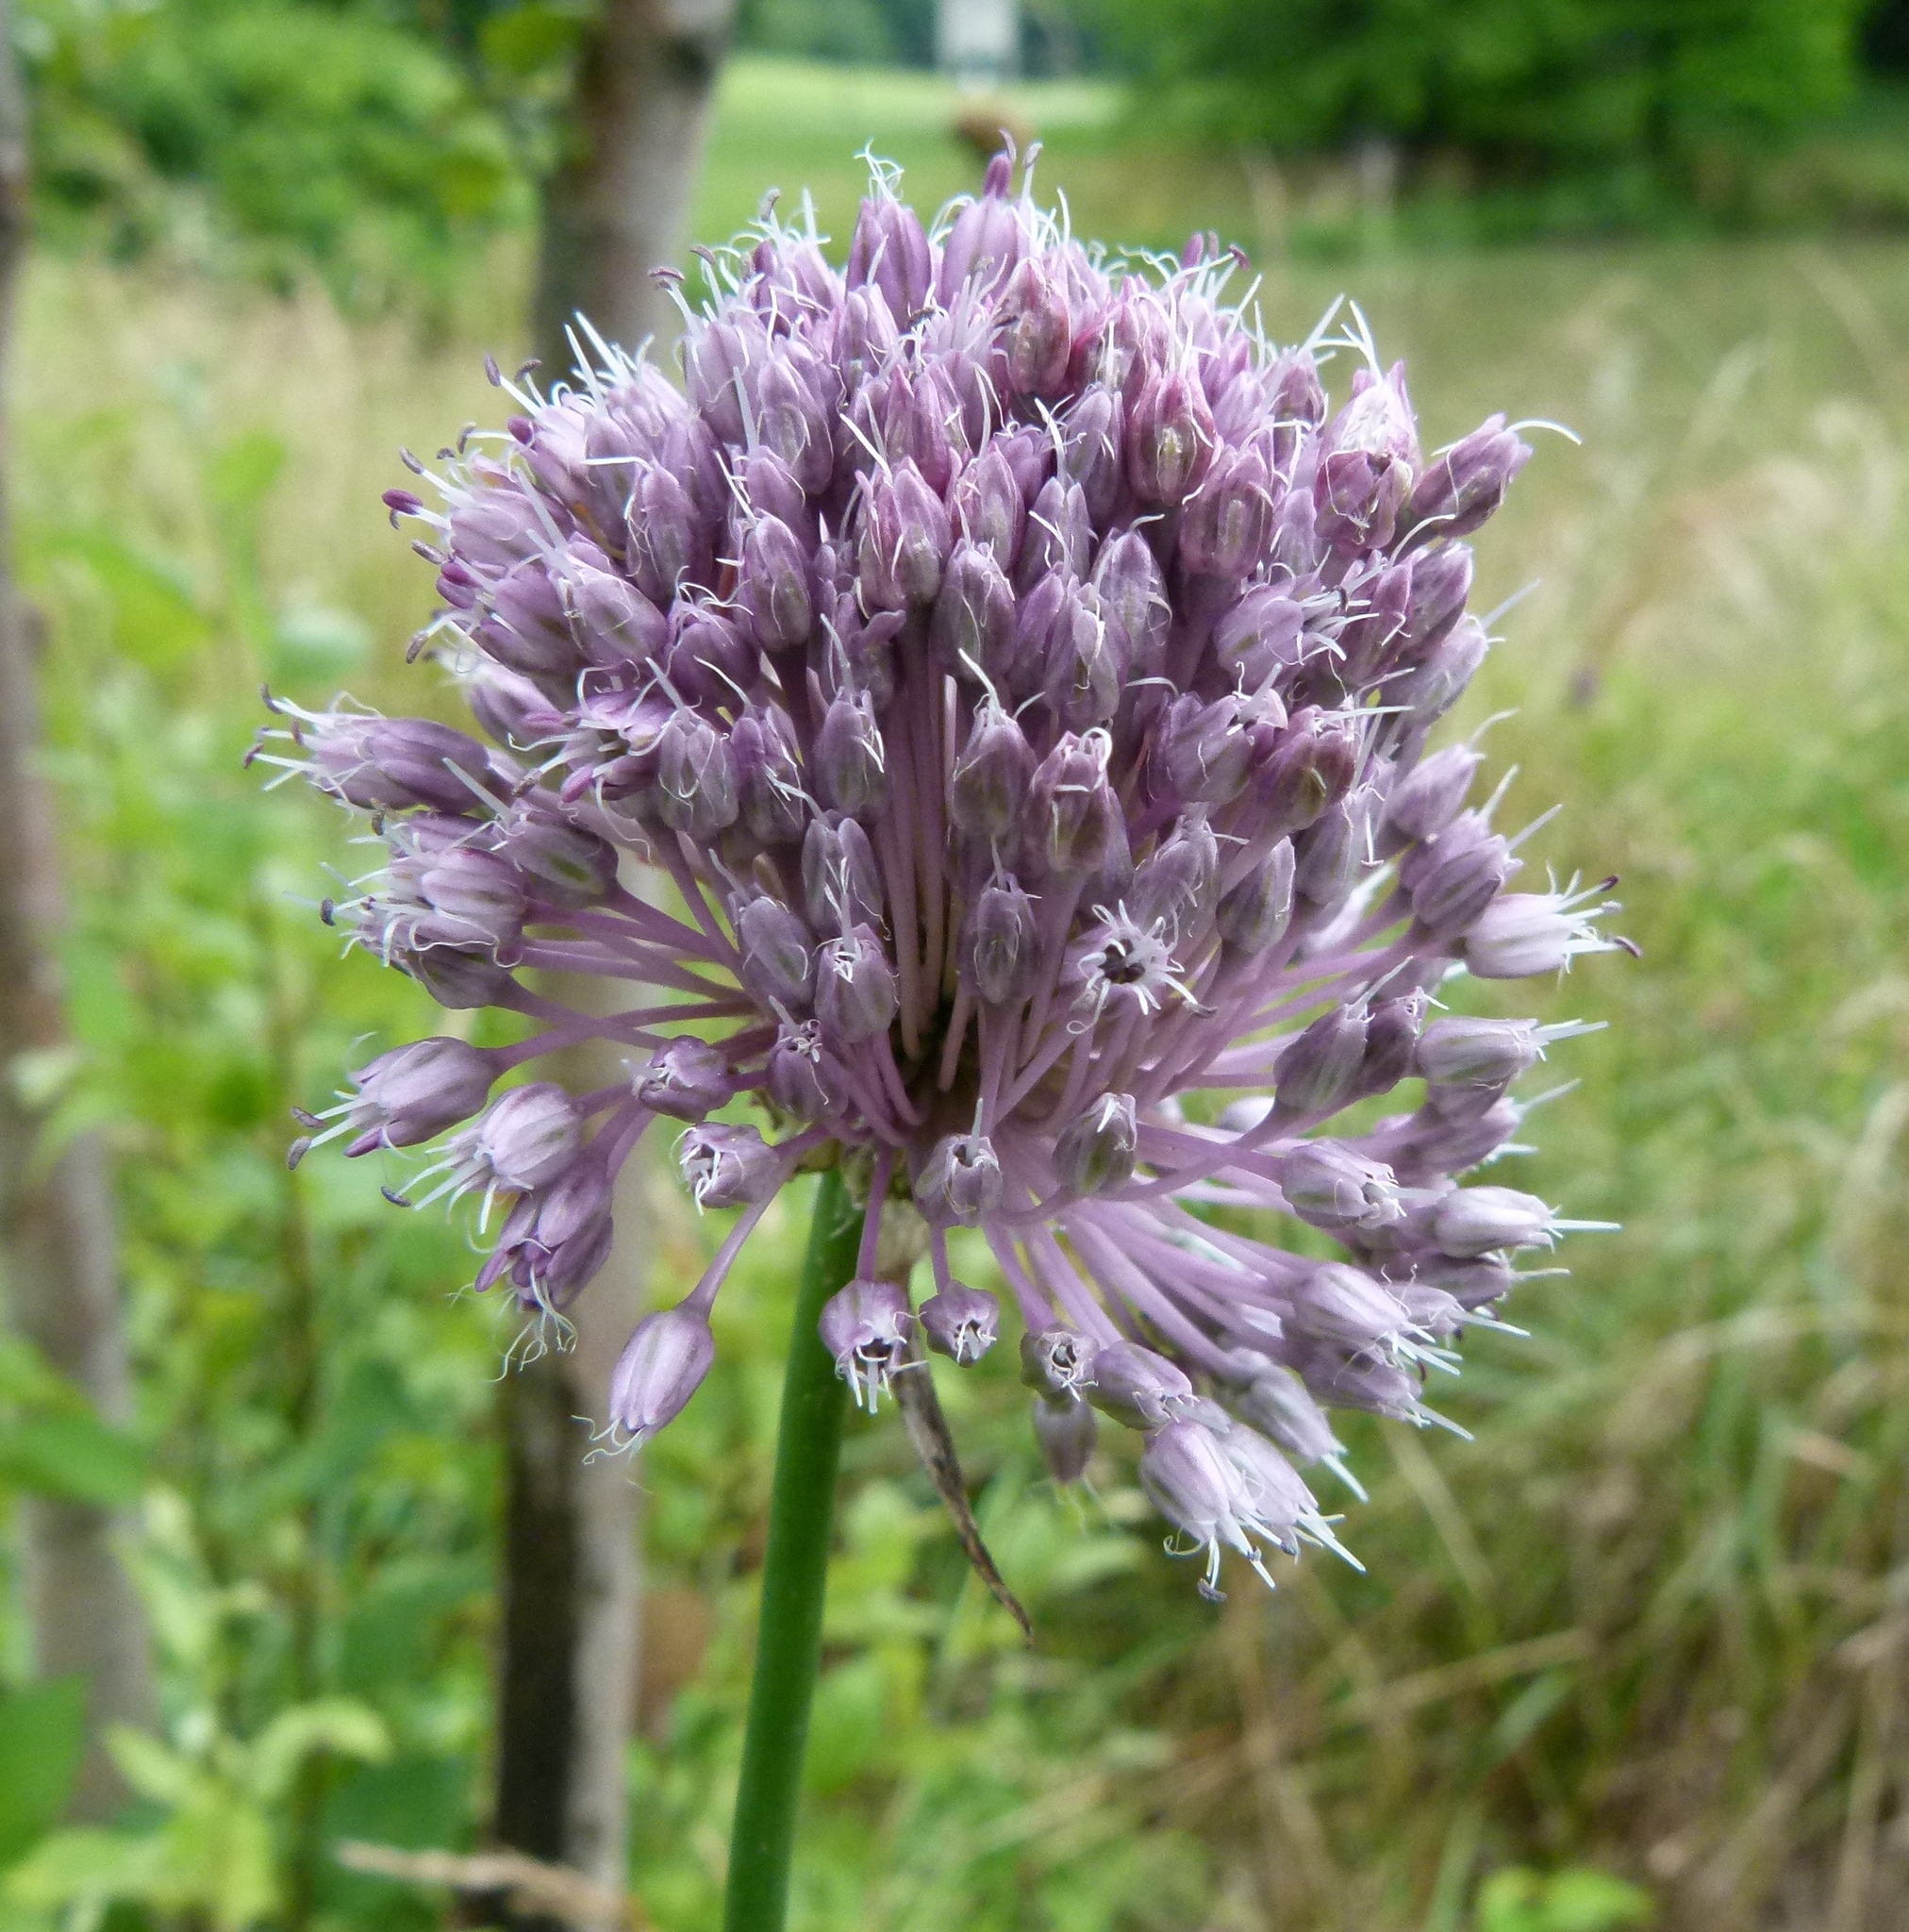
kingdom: Plantae
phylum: Tracheophyta
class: Liliopsida
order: Asparagales
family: Amaryllidaceae
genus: Allium
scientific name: Allium vineale
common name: Crow garlic
